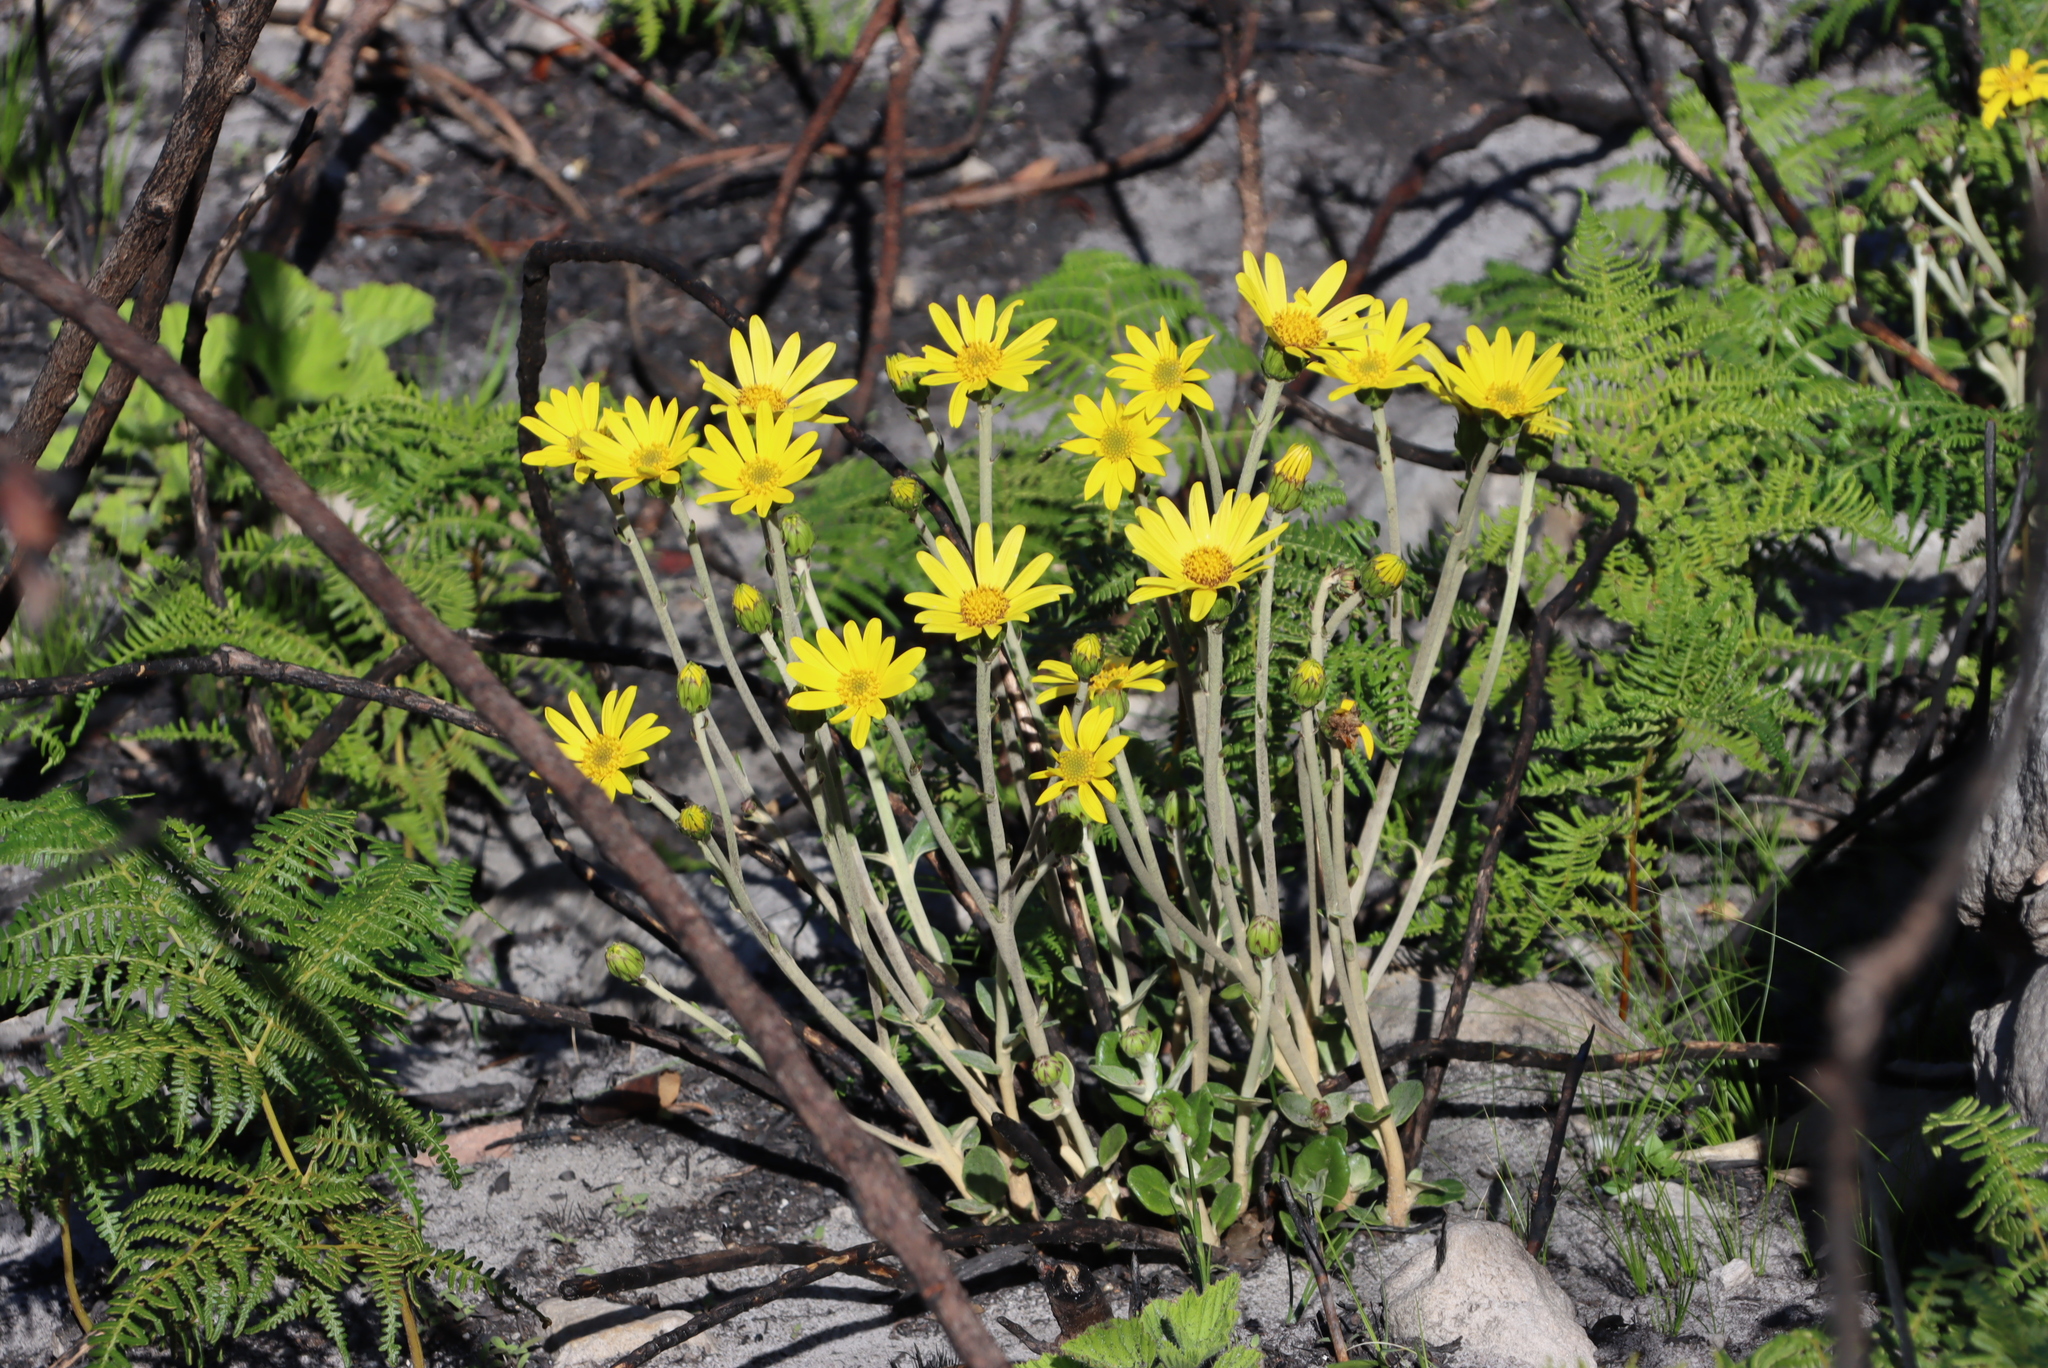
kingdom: Plantae
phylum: Tracheophyta
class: Magnoliopsida
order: Asterales
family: Asteraceae
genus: Capelio
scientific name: Capelio tabularis
